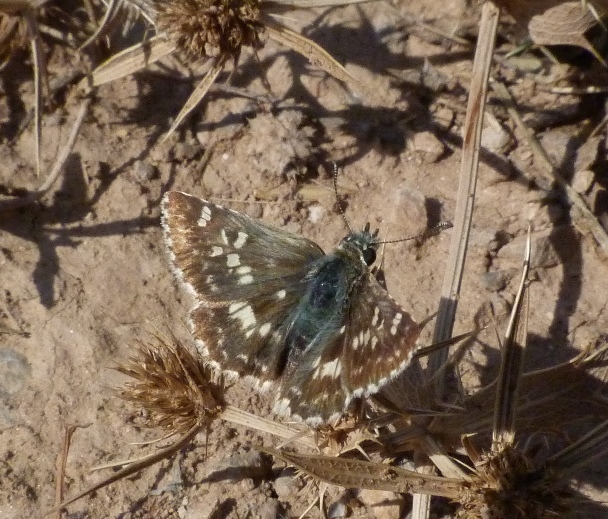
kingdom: Animalia
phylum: Arthropoda
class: Insecta
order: Lepidoptera
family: Hesperiidae
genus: Syrichtus
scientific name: Syrichtus Muschampia proto
